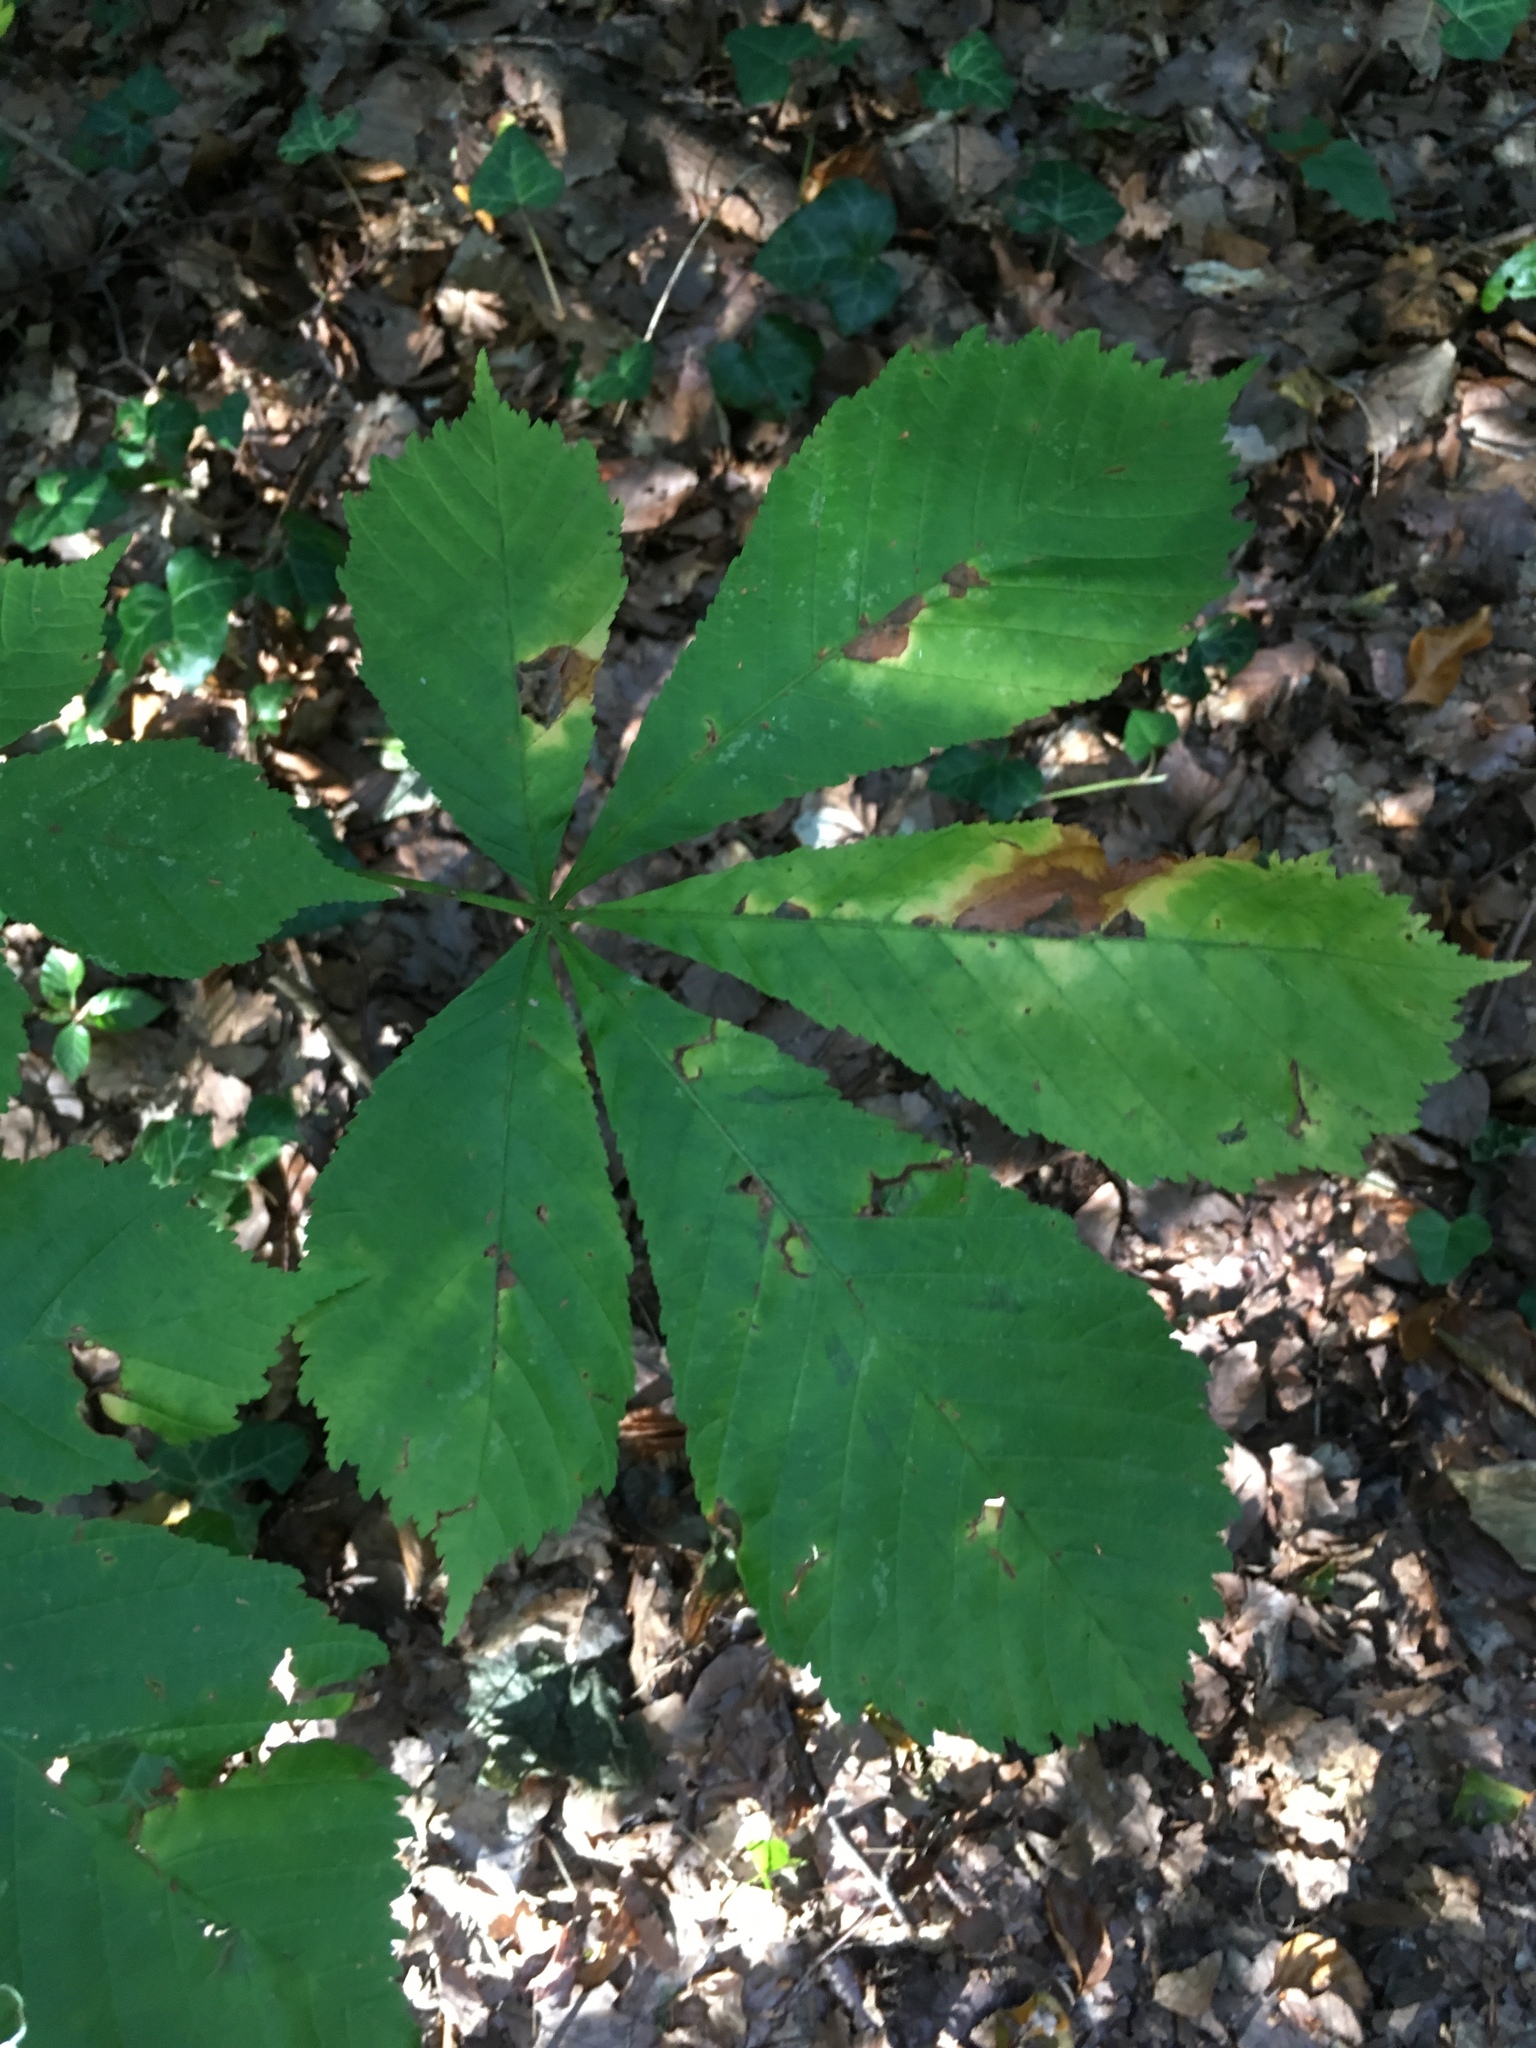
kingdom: Plantae
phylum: Tracheophyta
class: Magnoliopsida
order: Sapindales
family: Sapindaceae
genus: Aesculus
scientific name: Aesculus hippocastanum
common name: Horse-chestnut
